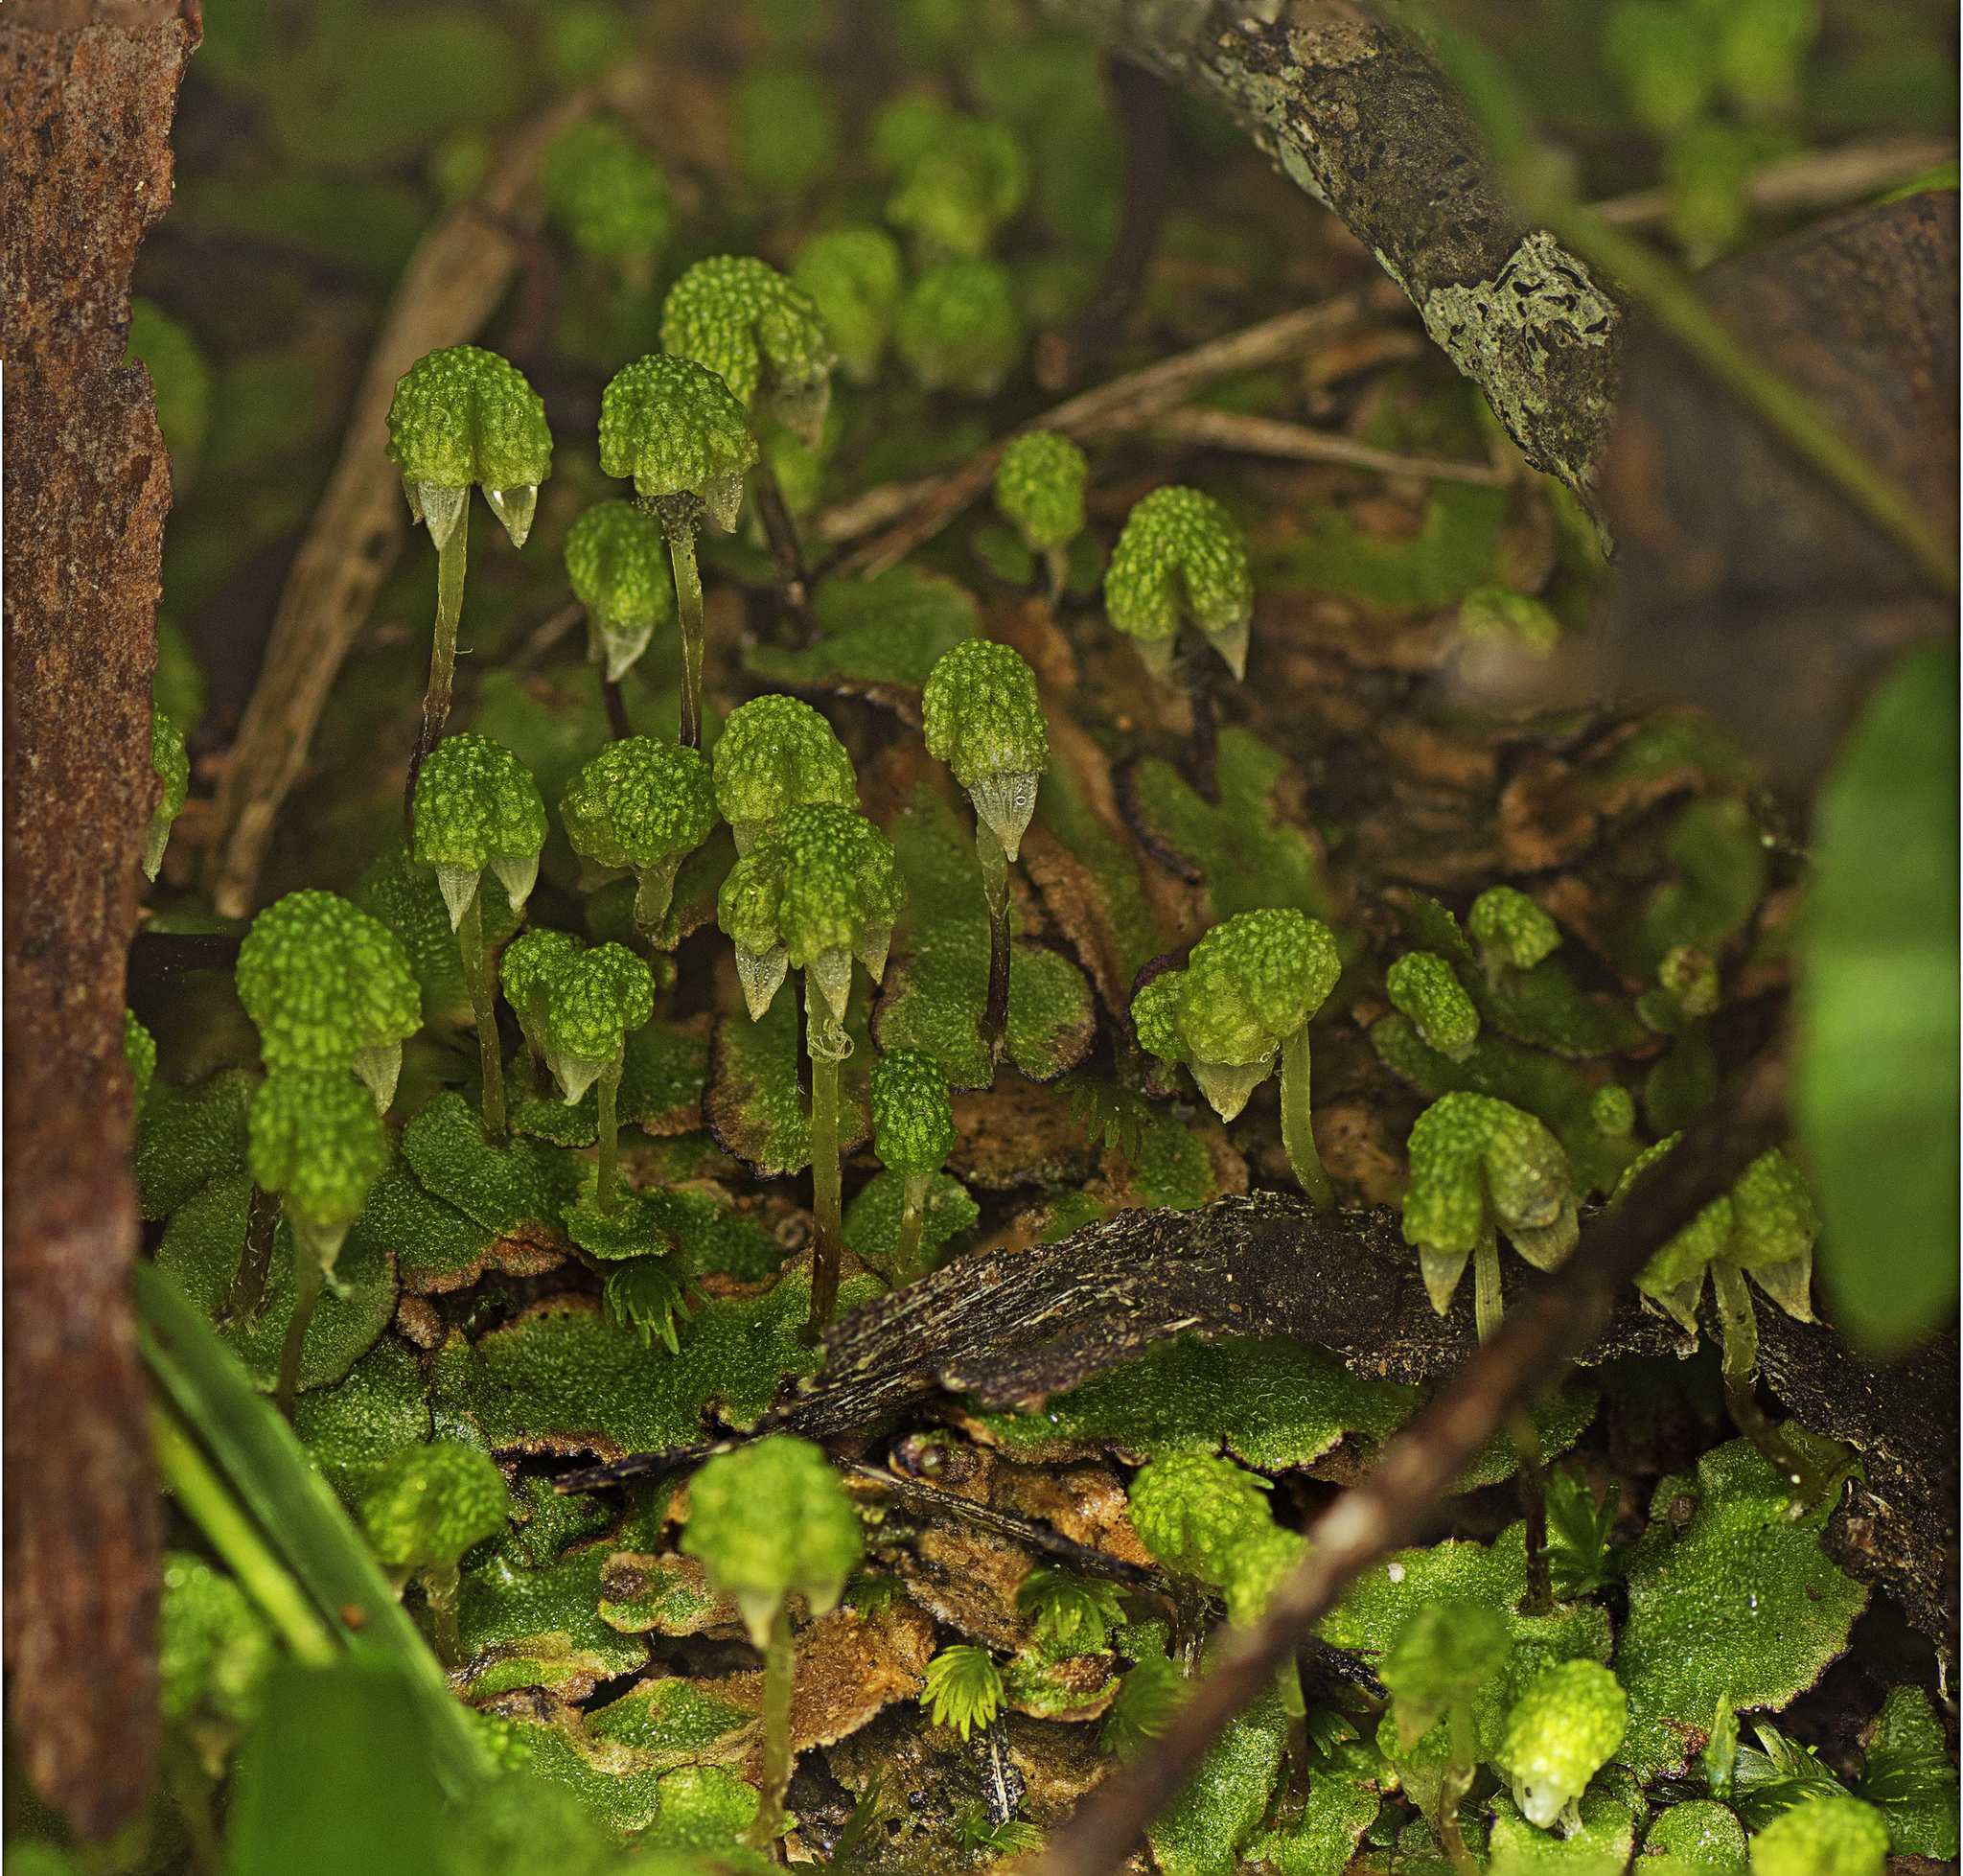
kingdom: Plantae
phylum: Marchantiophyta
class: Marchantiopsida
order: Marchantiales
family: Aytoniaceae
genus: Asterella
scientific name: Asterella drummondii
